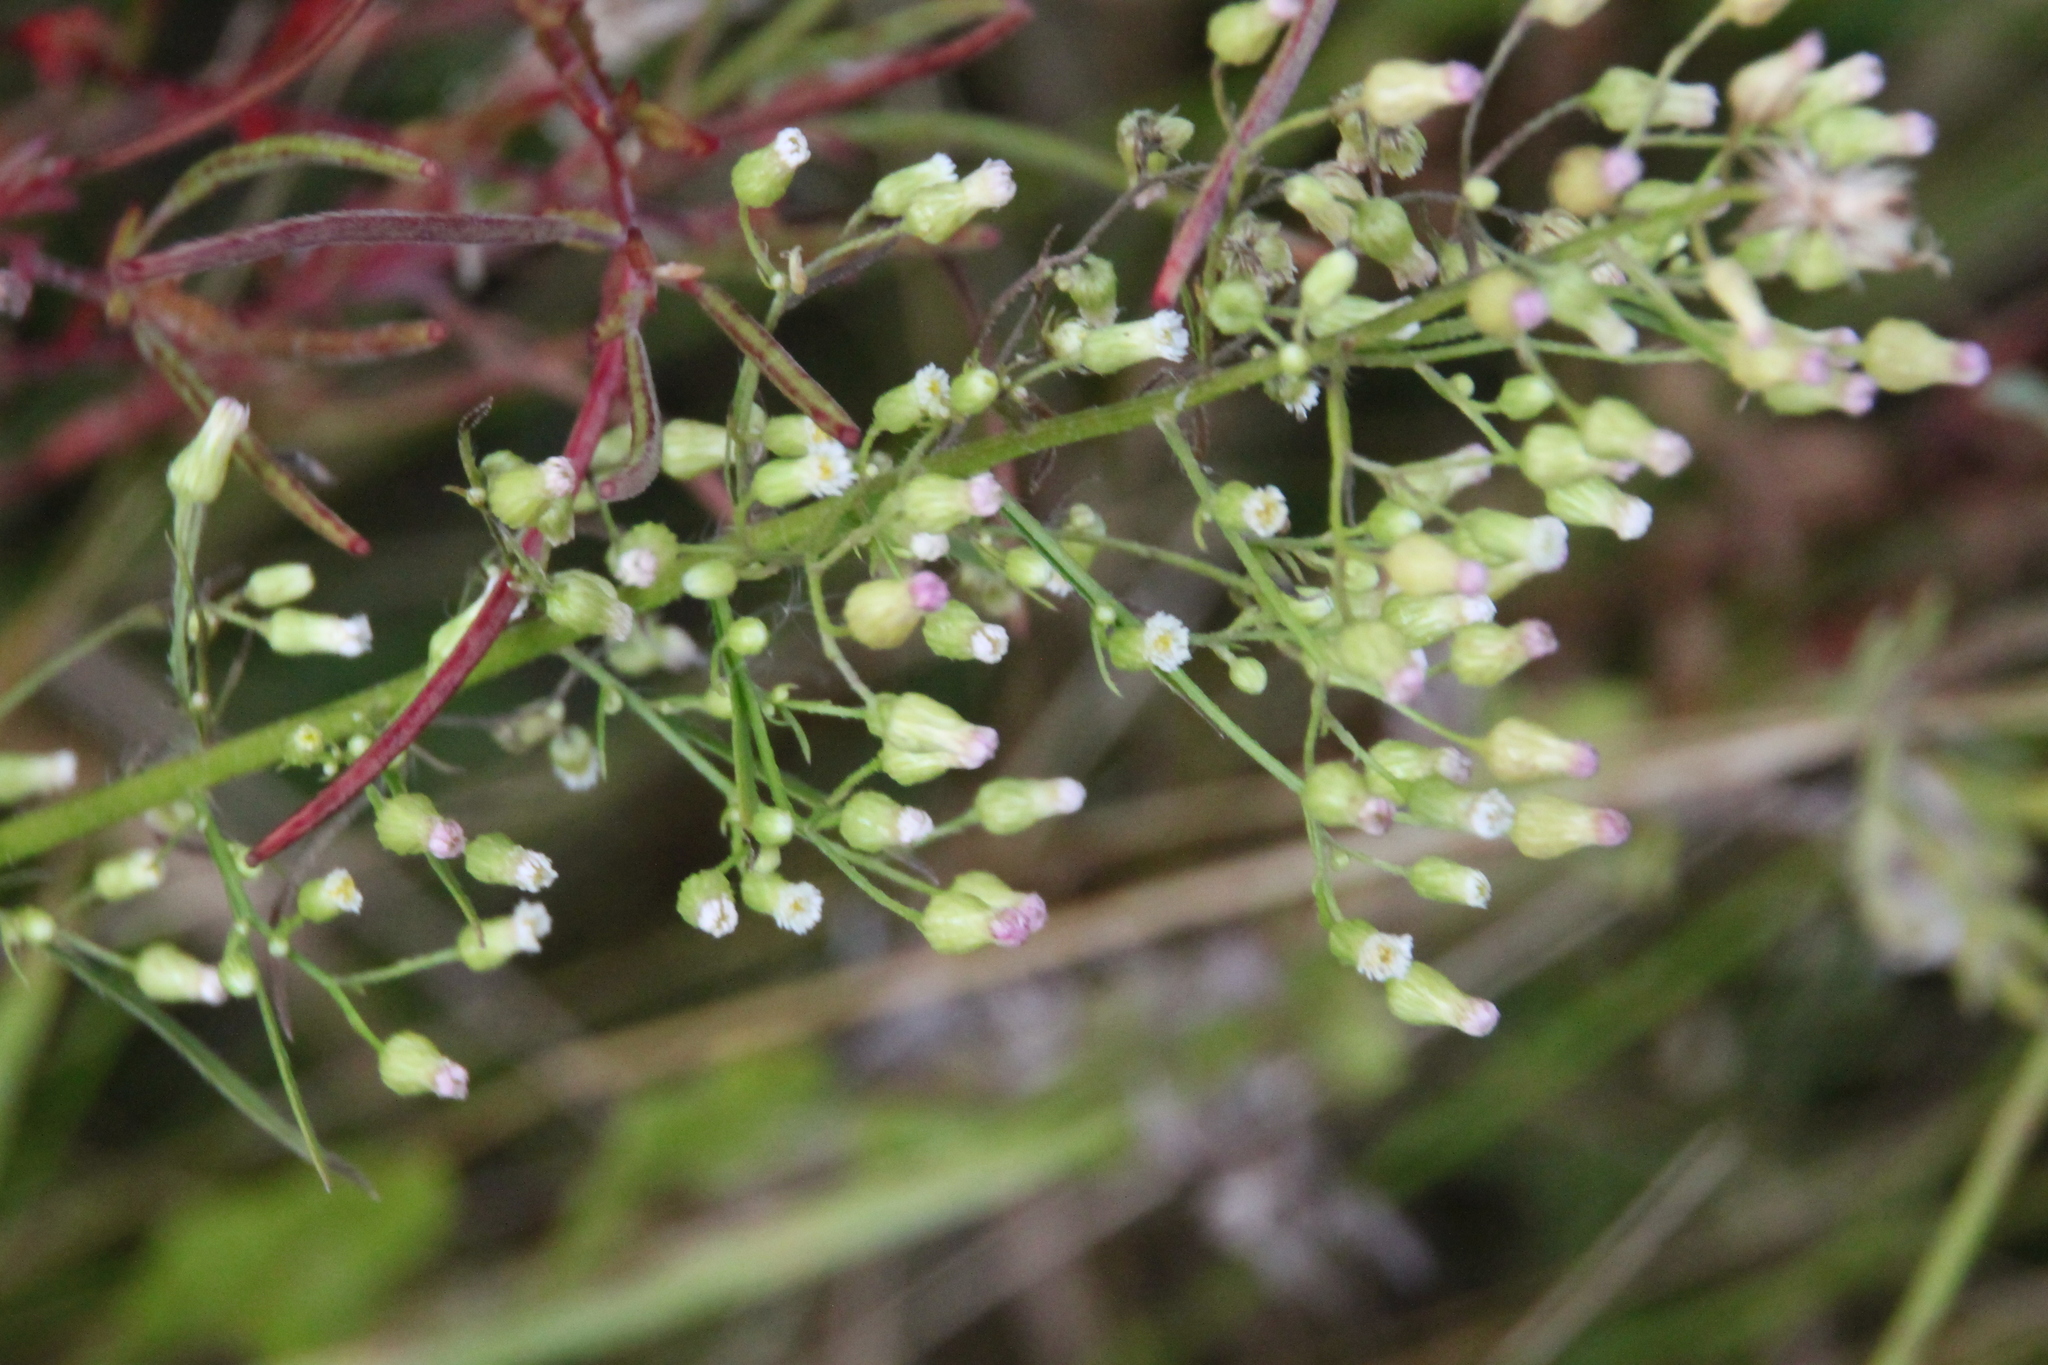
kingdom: Plantae
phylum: Tracheophyta
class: Magnoliopsida
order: Asterales
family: Asteraceae
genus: Erigeron
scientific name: Erigeron canadensis
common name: Canadian fleabane
